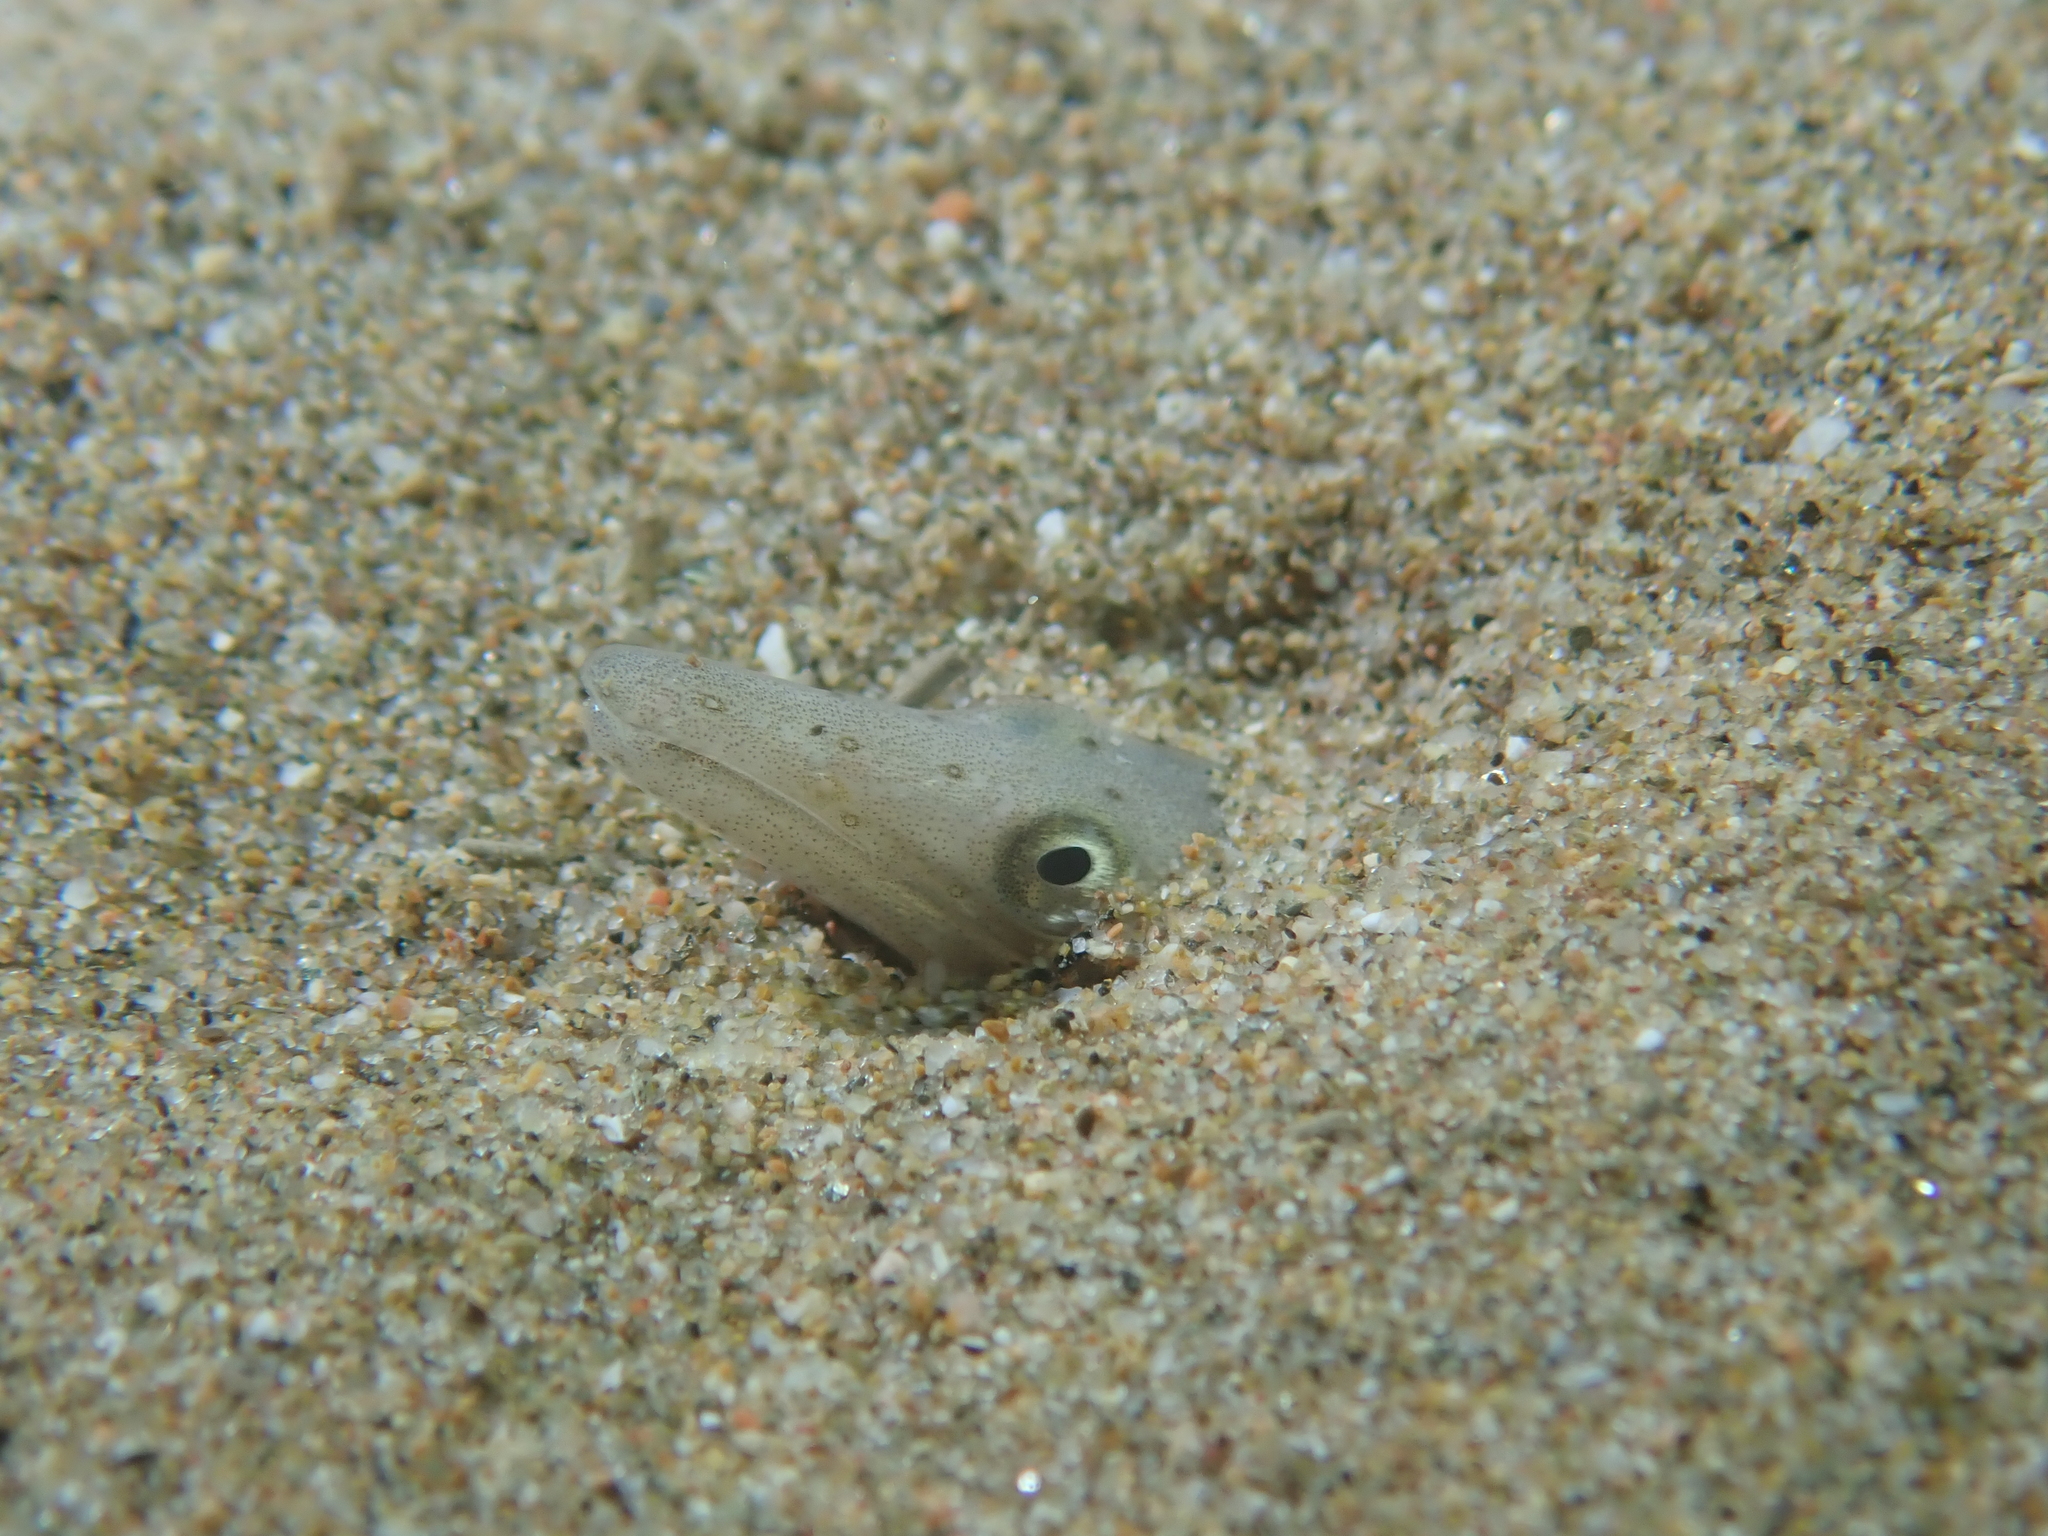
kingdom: Animalia
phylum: Chordata
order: Anguilliformes
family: Ophichthidae
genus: Ophisurus
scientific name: Ophisurus serpens
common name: Serpent eel
